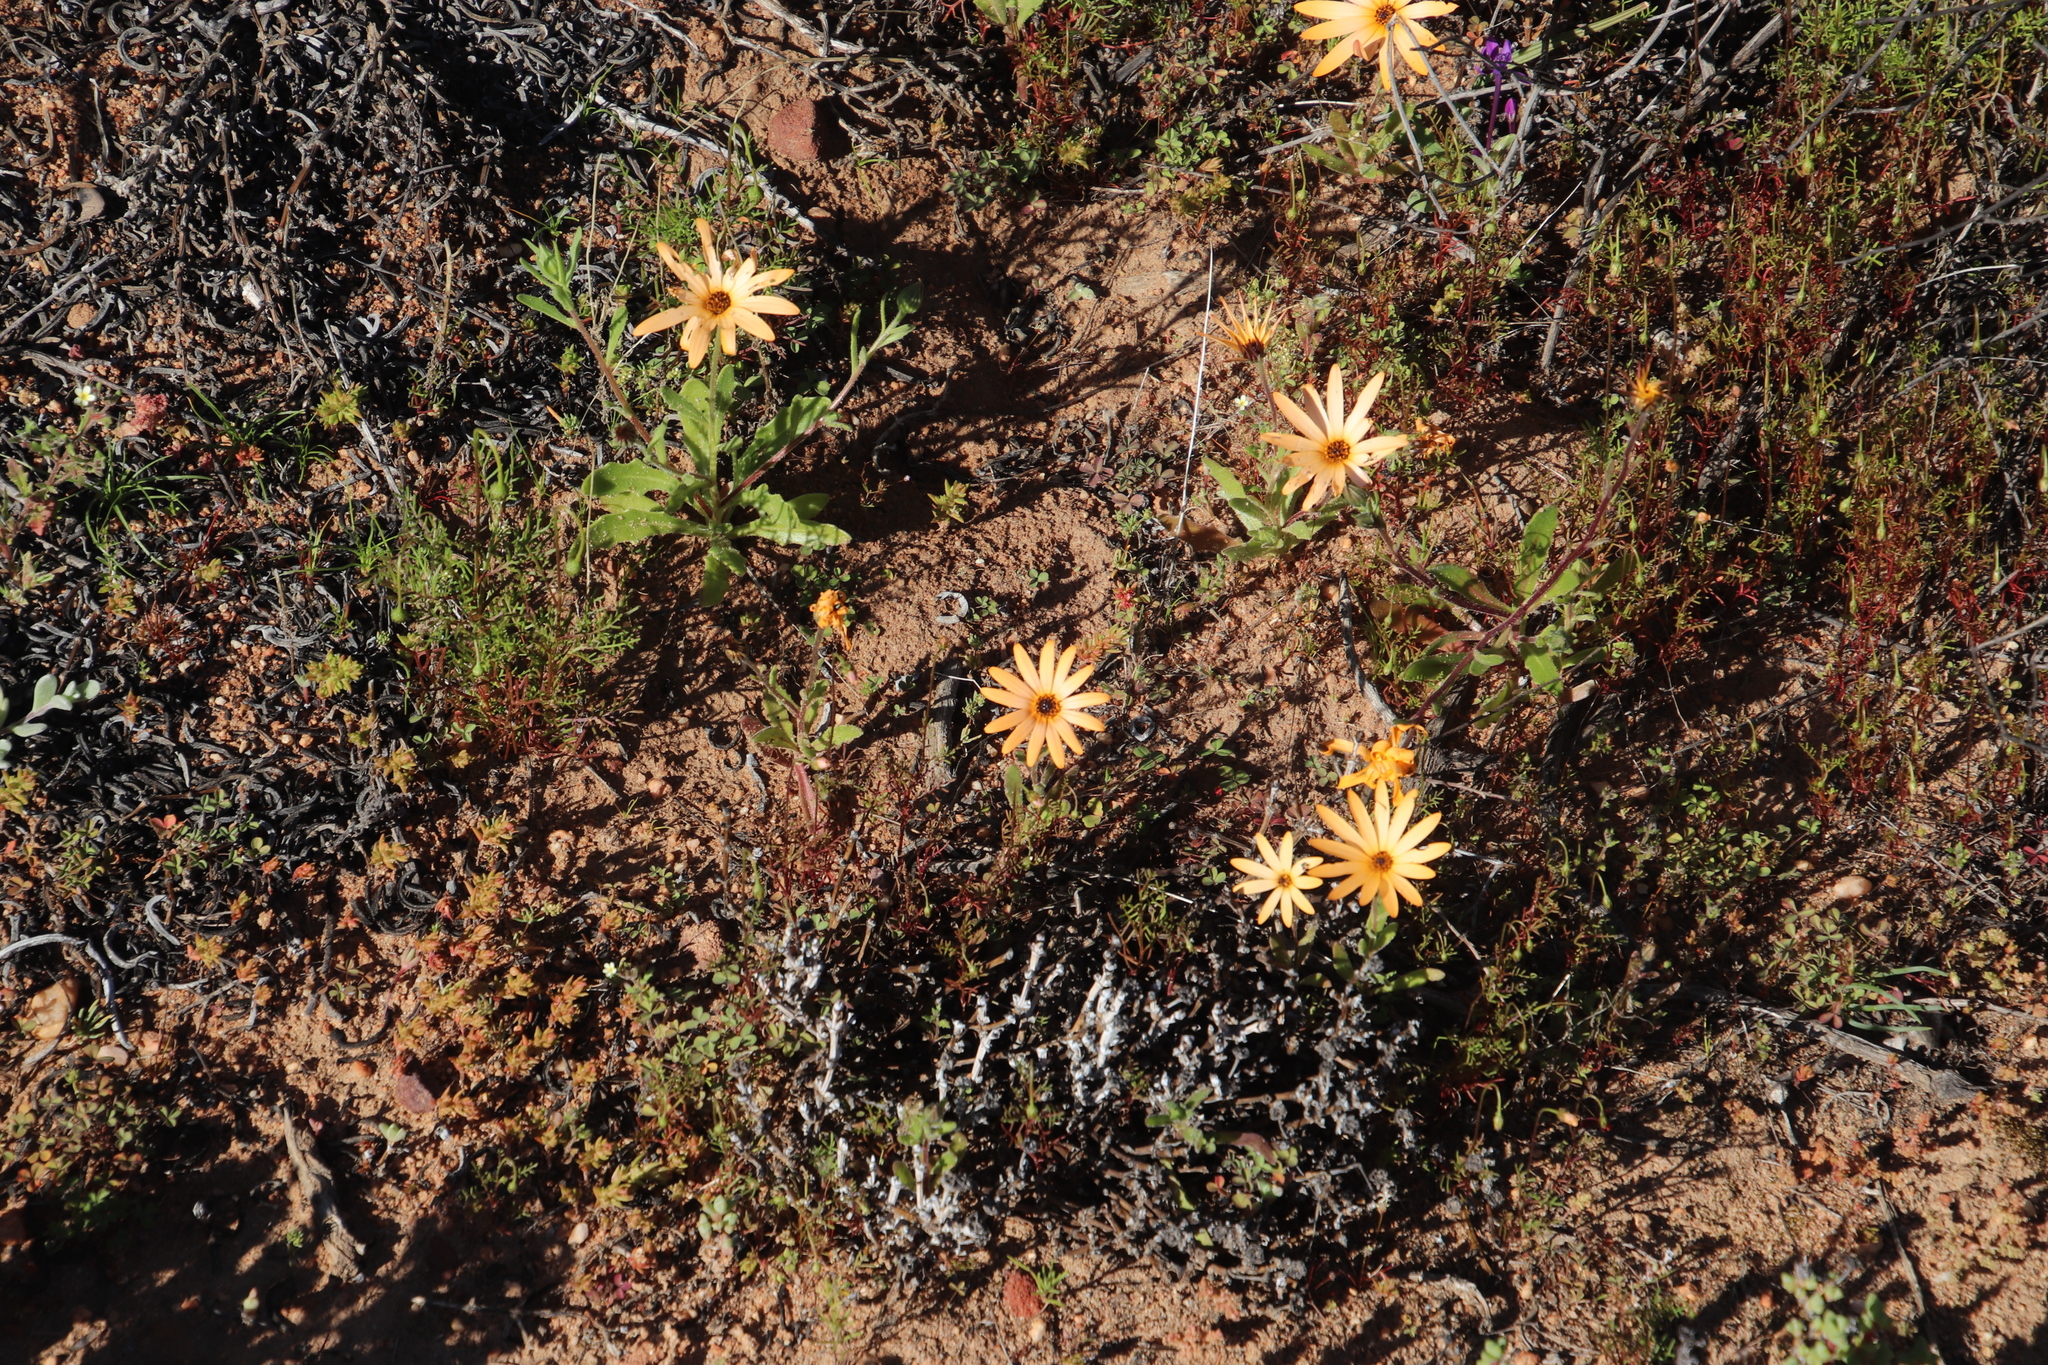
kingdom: Plantae
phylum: Tracheophyta
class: Magnoliopsida
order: Asterales
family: Asteraceae
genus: Dimorphotheca
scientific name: Dimorphotheca sinuata
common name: Glandular cape marigold
